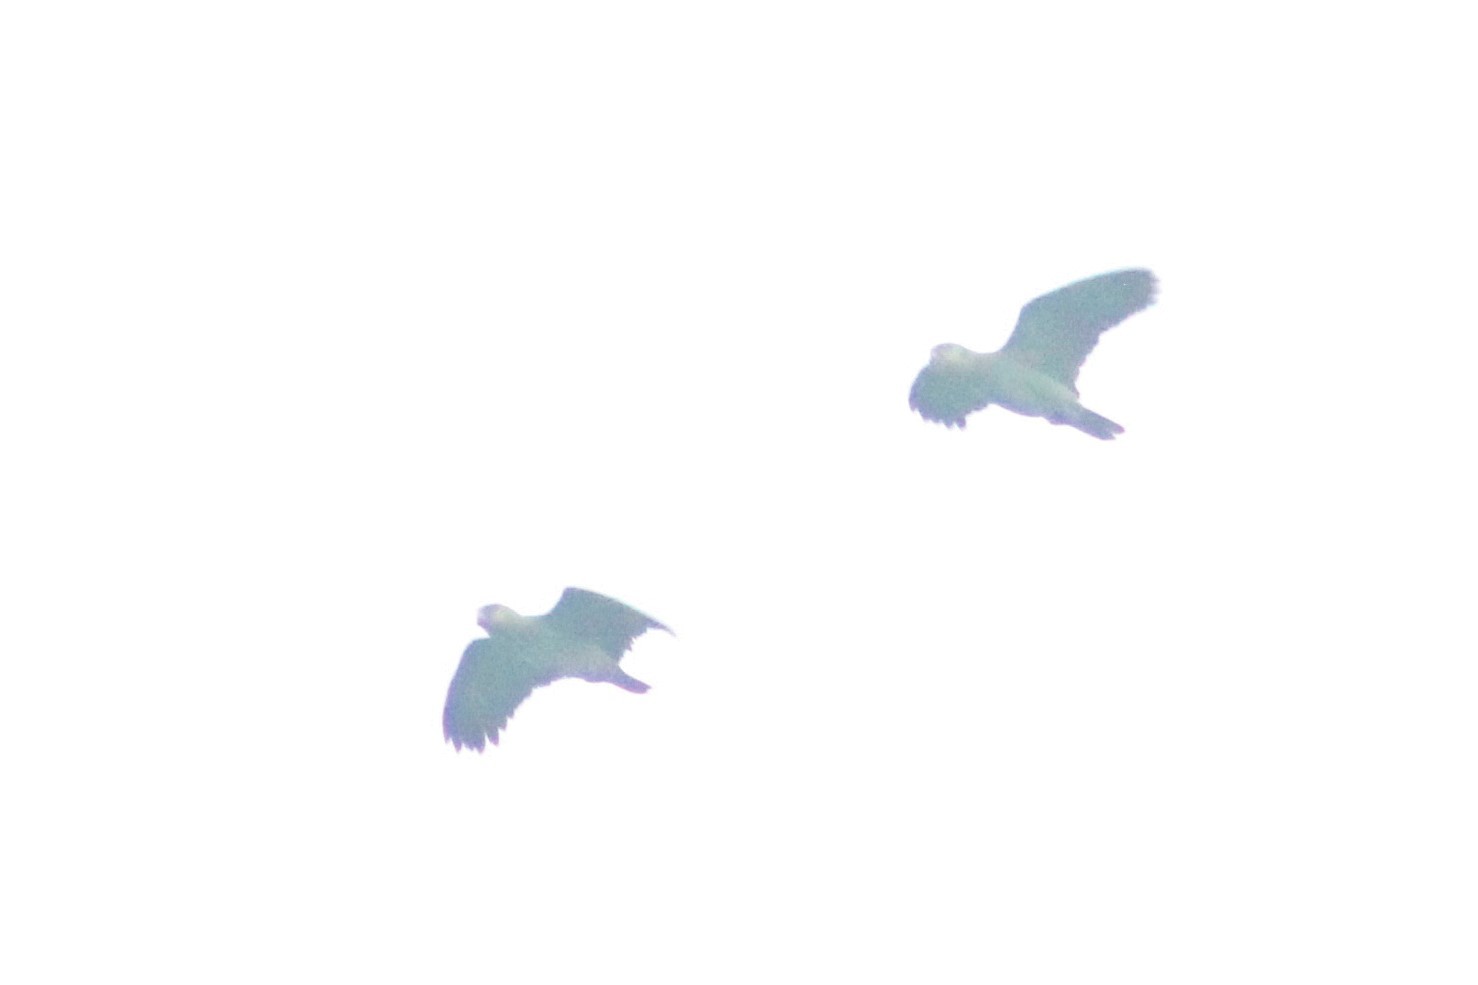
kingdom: Animalia
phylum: Chordata
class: Aves
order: Psittaciformes
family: Psittacidae
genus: Amazona
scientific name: Amazona amazonica
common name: Orange-winged amazon
